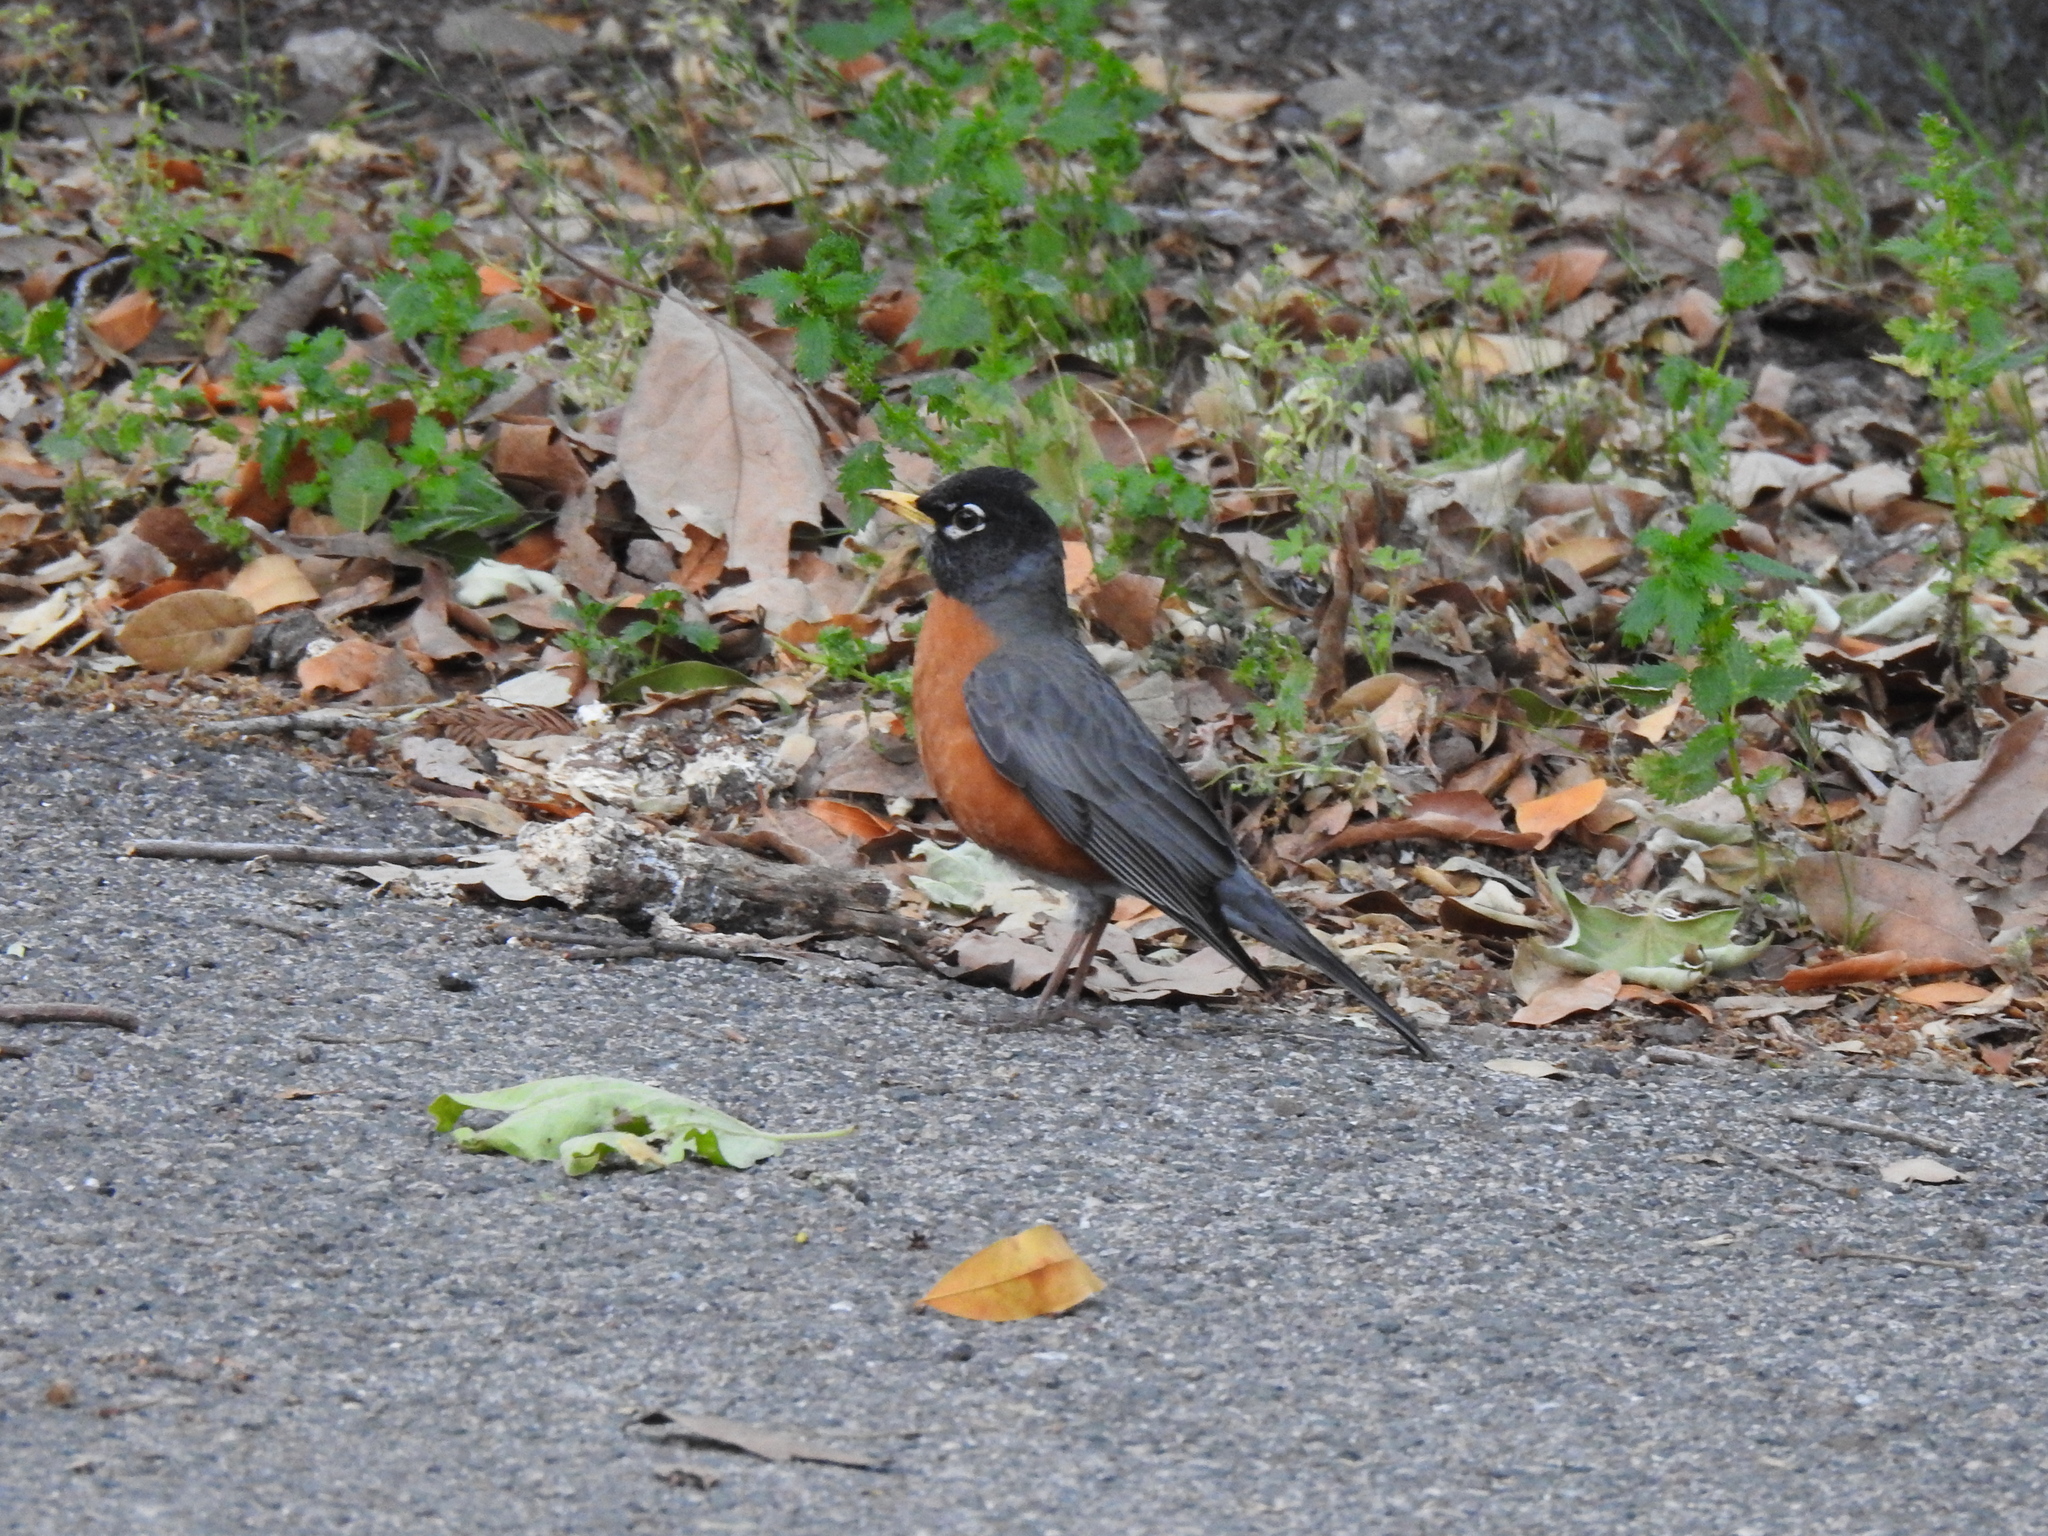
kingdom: Animalia
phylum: Chordata
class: Aves
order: Passeriformes
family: Turdidae
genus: Turdus
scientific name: Turdus migratorius
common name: American robin
